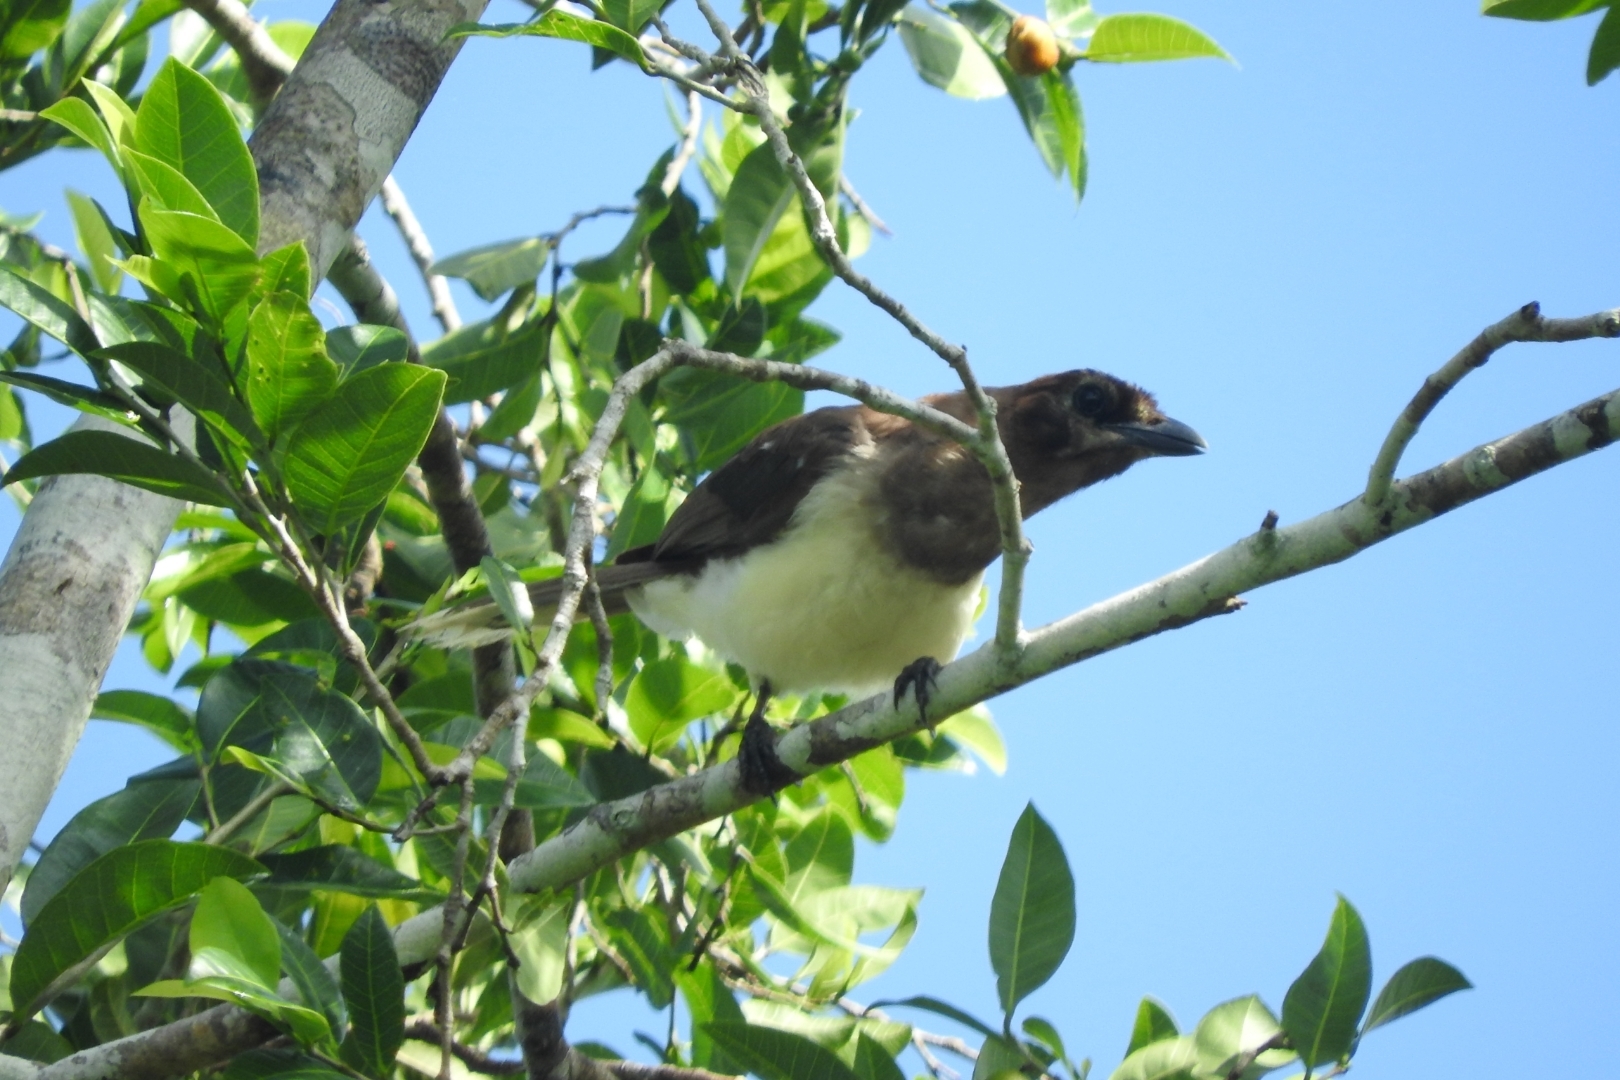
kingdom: Animalia
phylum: Chordata
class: Aves
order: Passeriformes
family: Corvidae
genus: Psilorhinus
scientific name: Psilorhinus morio
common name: Brown jay
